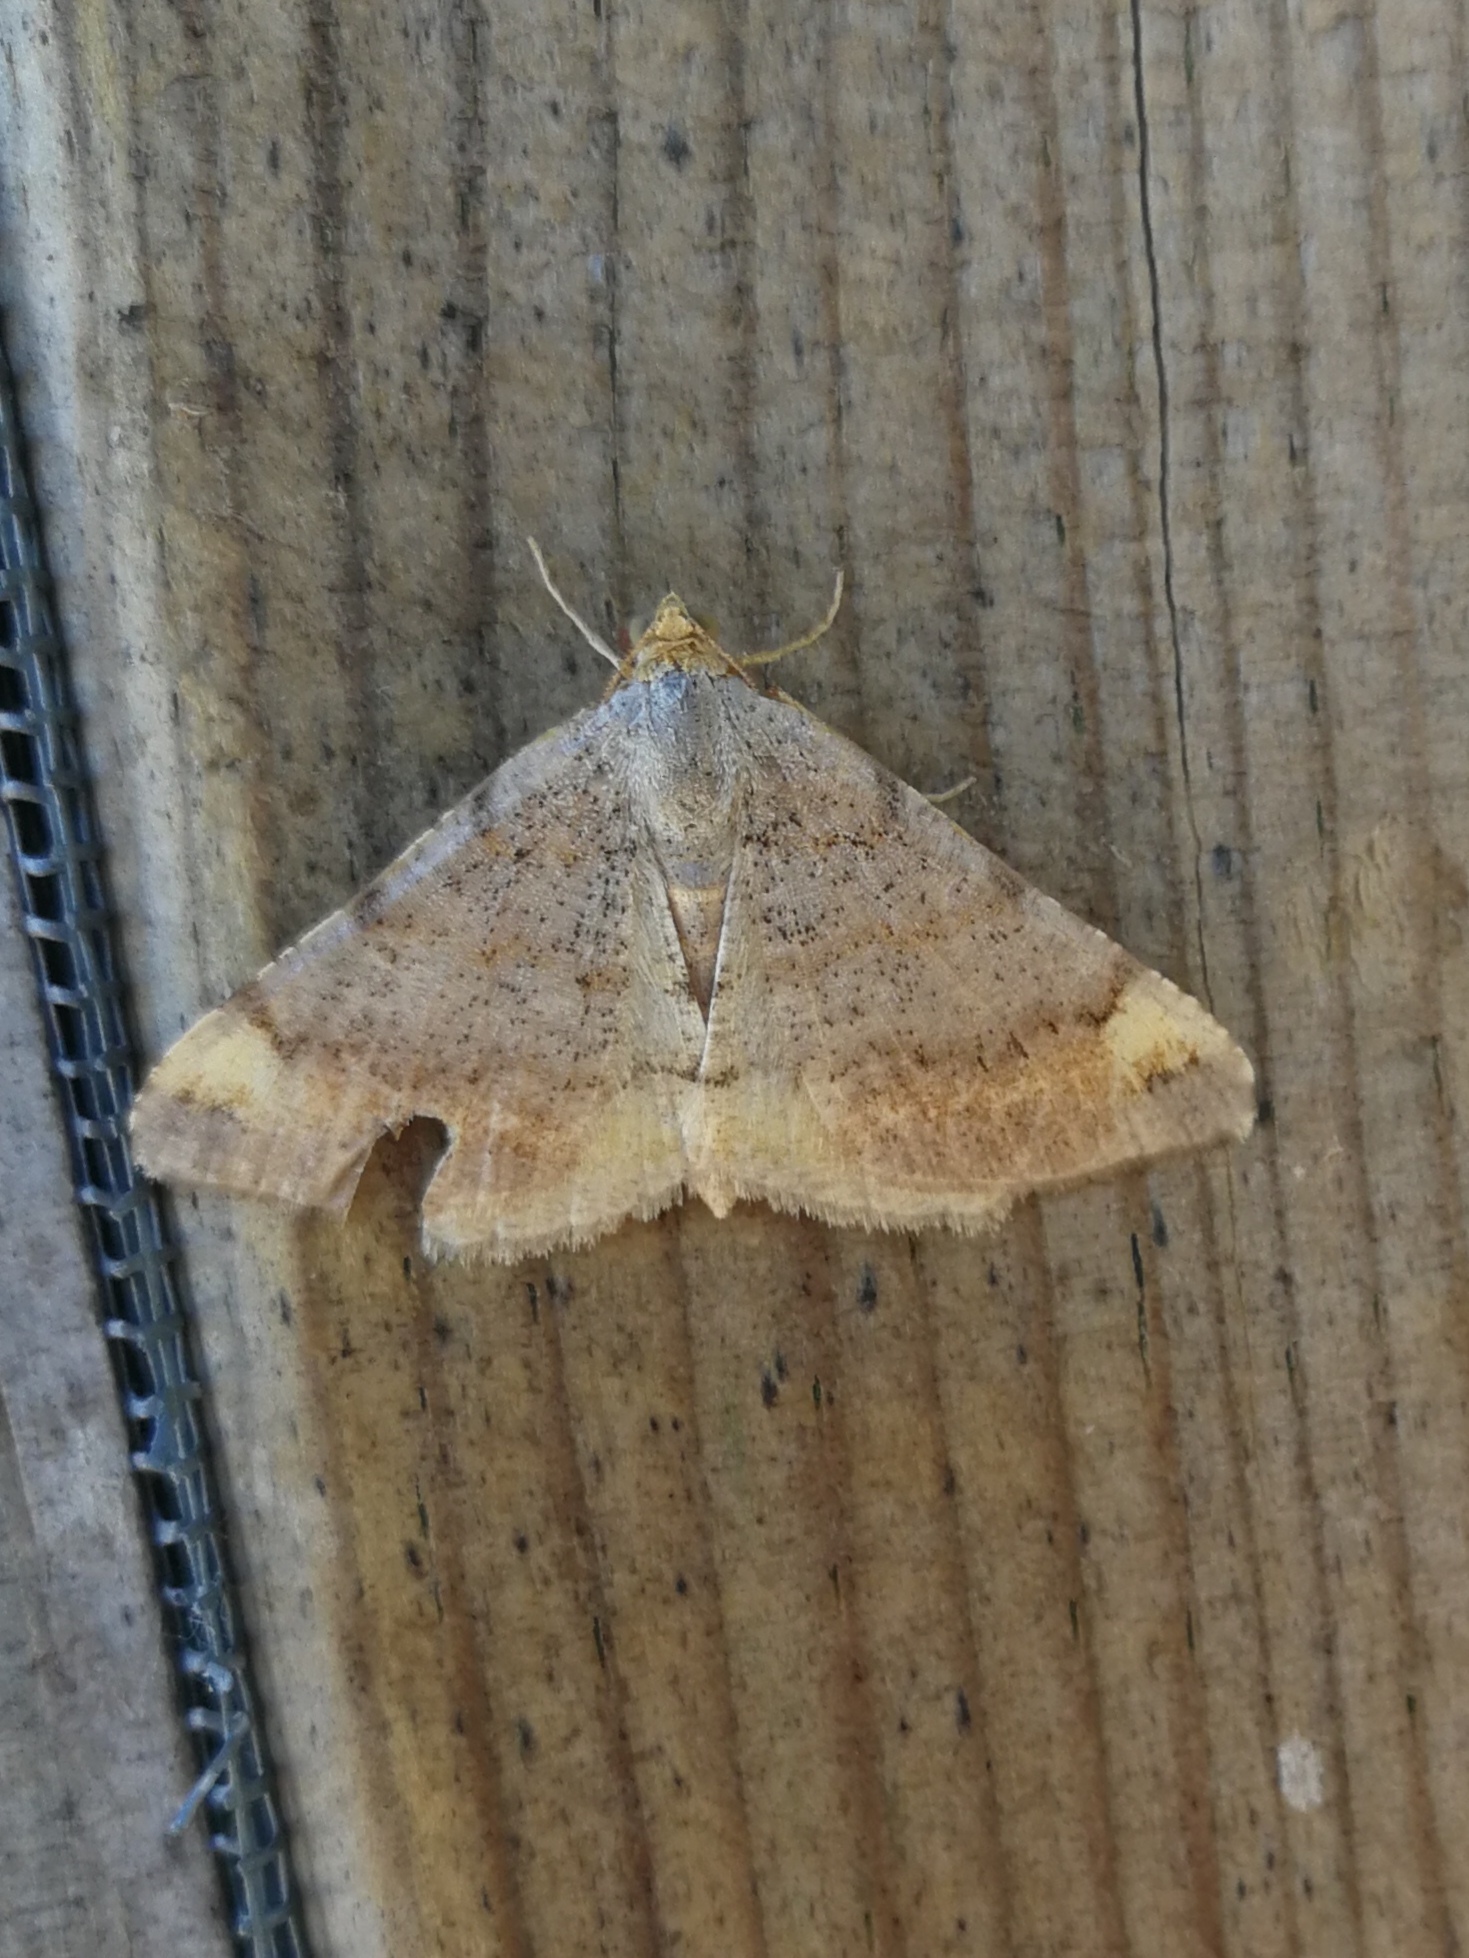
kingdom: Animalia
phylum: Arthropoda
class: Insecta
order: Lepidoptera
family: Geometridae
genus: Macaria
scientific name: Macaria liturata
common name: Tawny-barred angle
